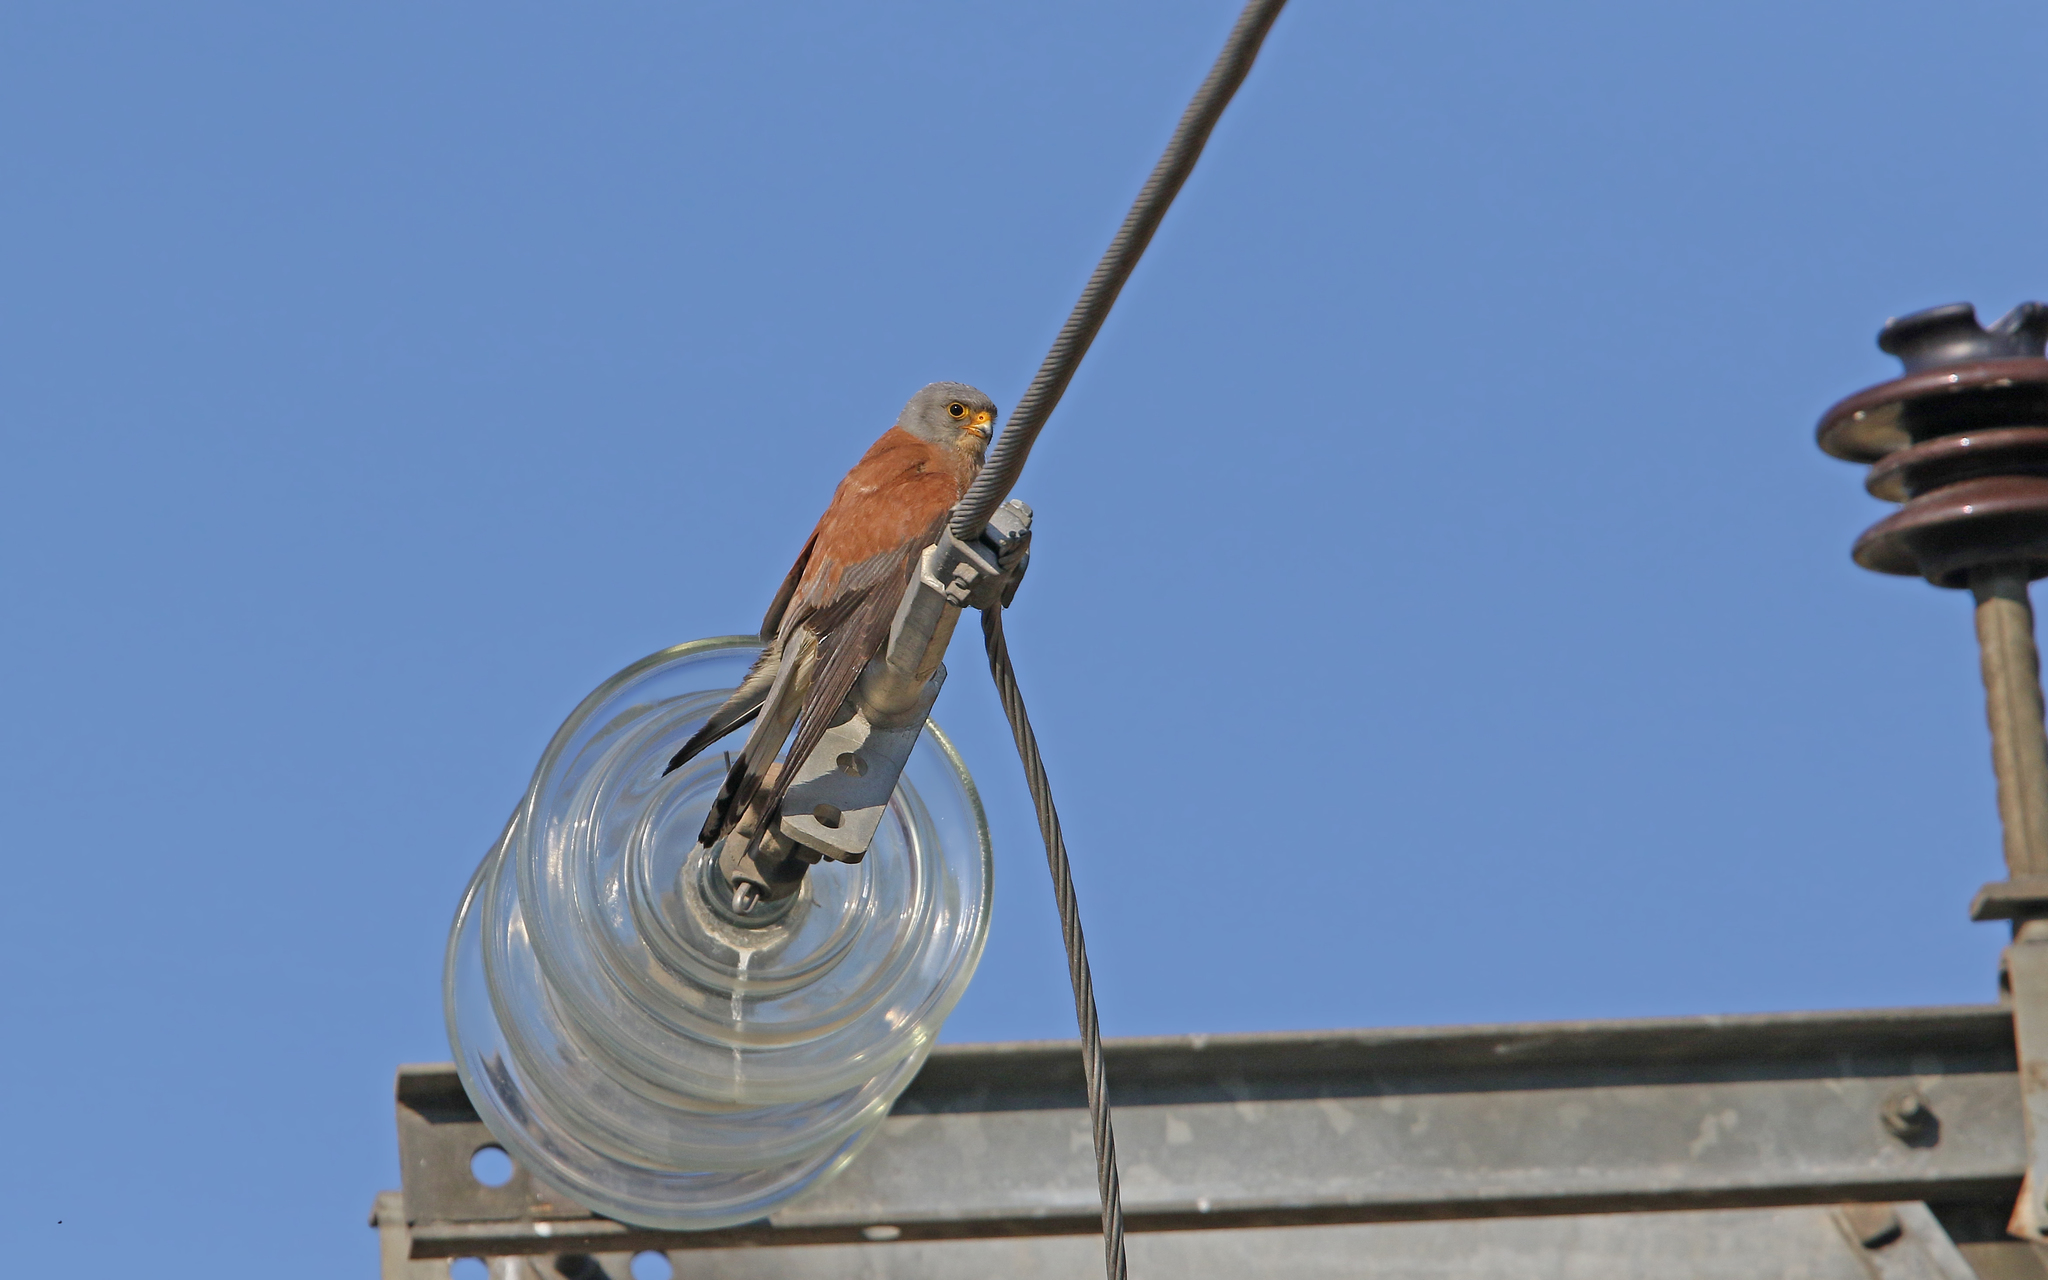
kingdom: Animalia
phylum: Chordata
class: Aves
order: Falconiformes
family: Falconidae
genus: Falco
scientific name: Falco naumanni
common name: Lesser kestrel
